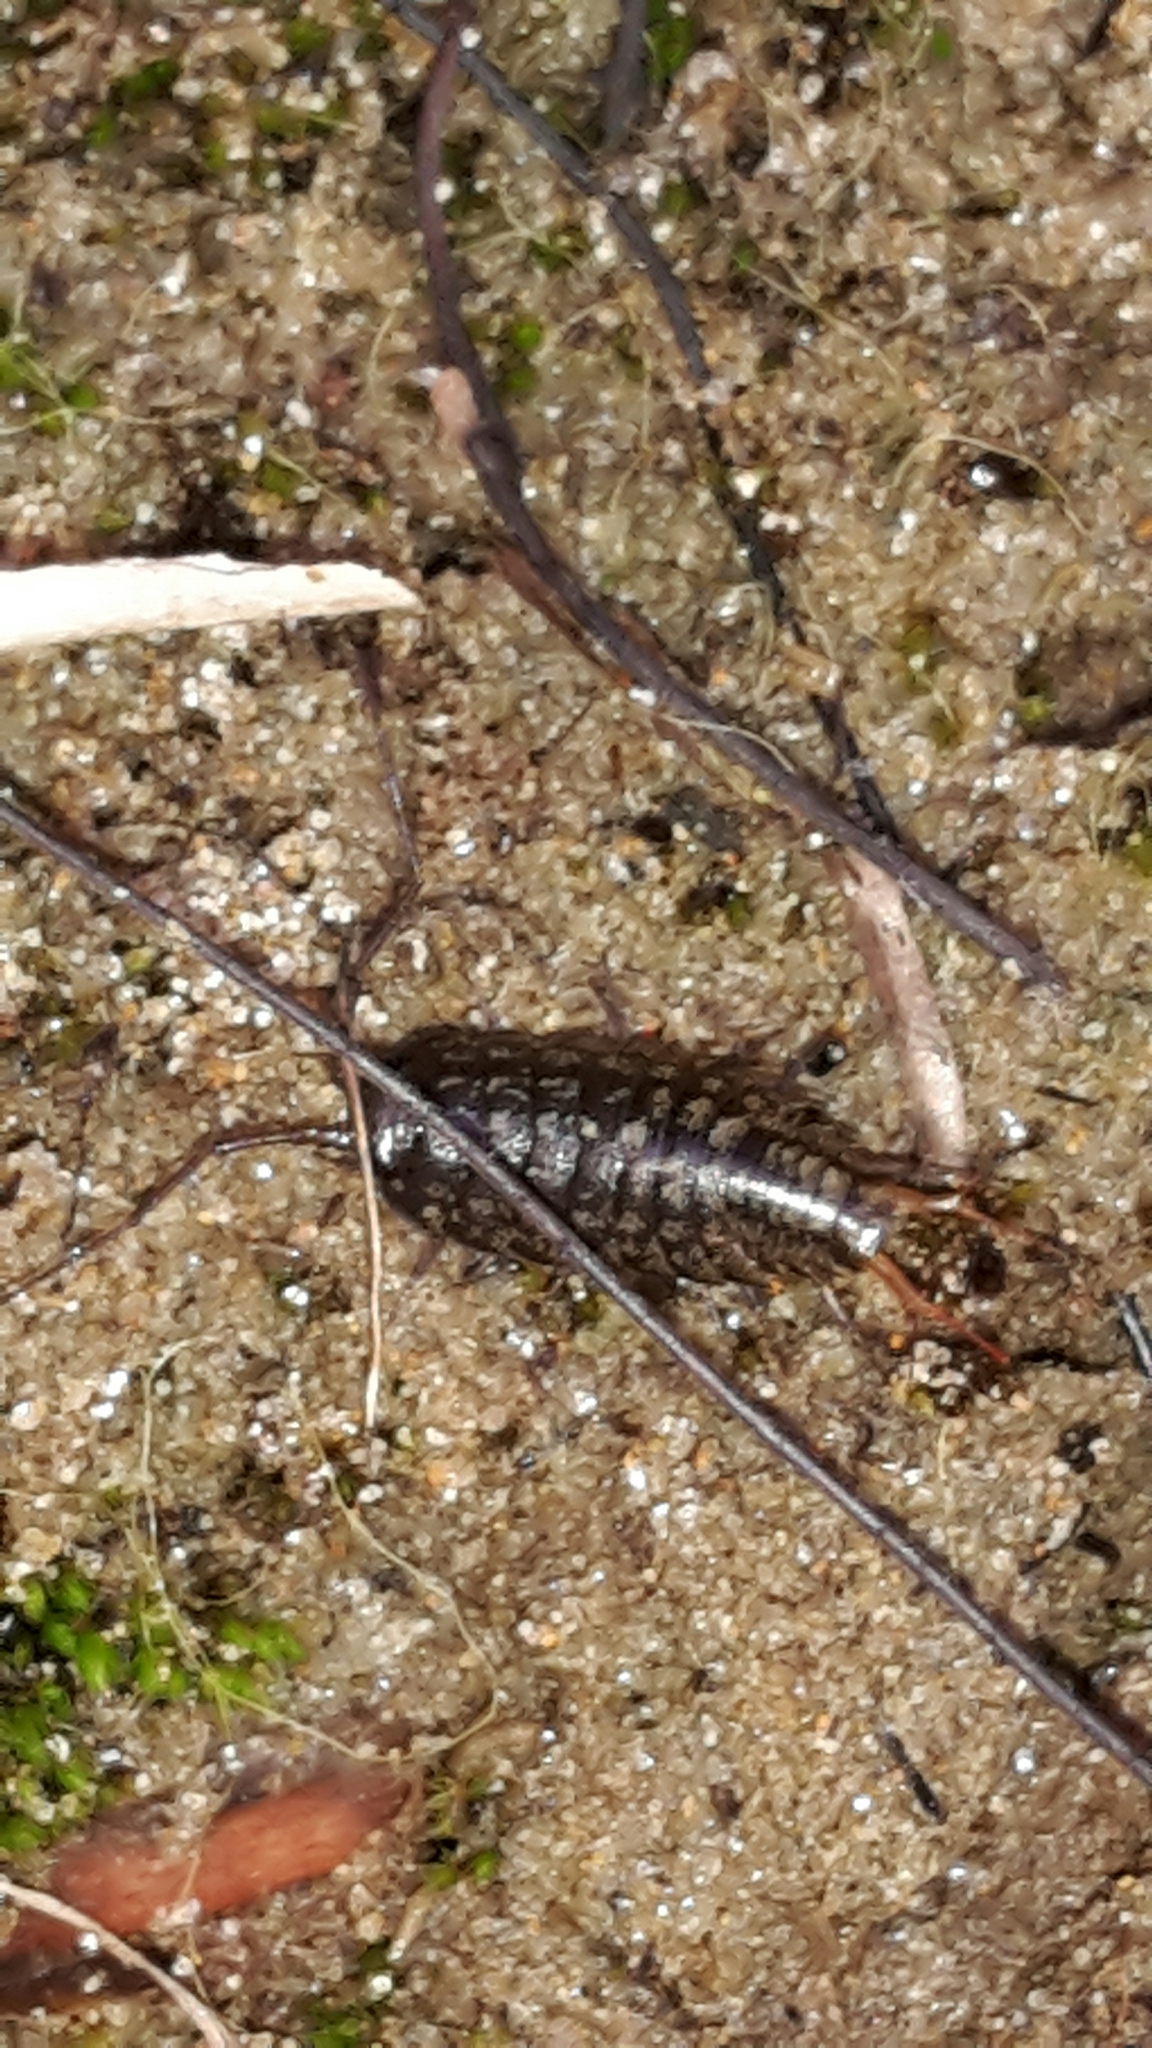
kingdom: Animalia
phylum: Arthropoda
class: Malacostraca
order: Isopoda
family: Ligiidae
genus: Ligia
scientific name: Ligia novizealandiae
